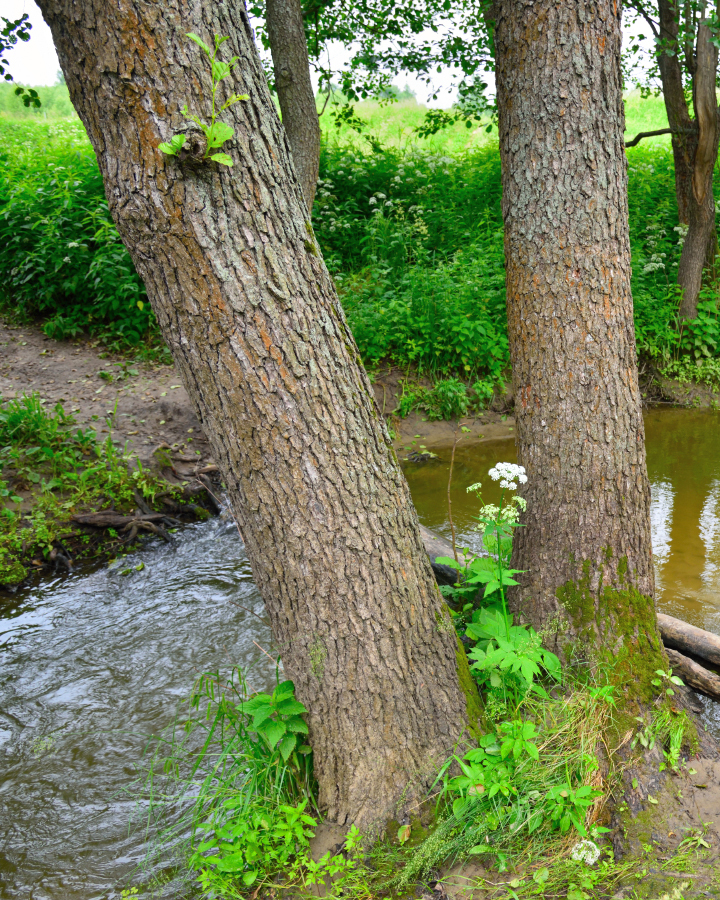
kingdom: Plantae
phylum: Tracheophyta
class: Magnoliopsida
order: Fagales
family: Betulaceae
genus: Alnus
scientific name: Alnus glutinosa
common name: Black alder
